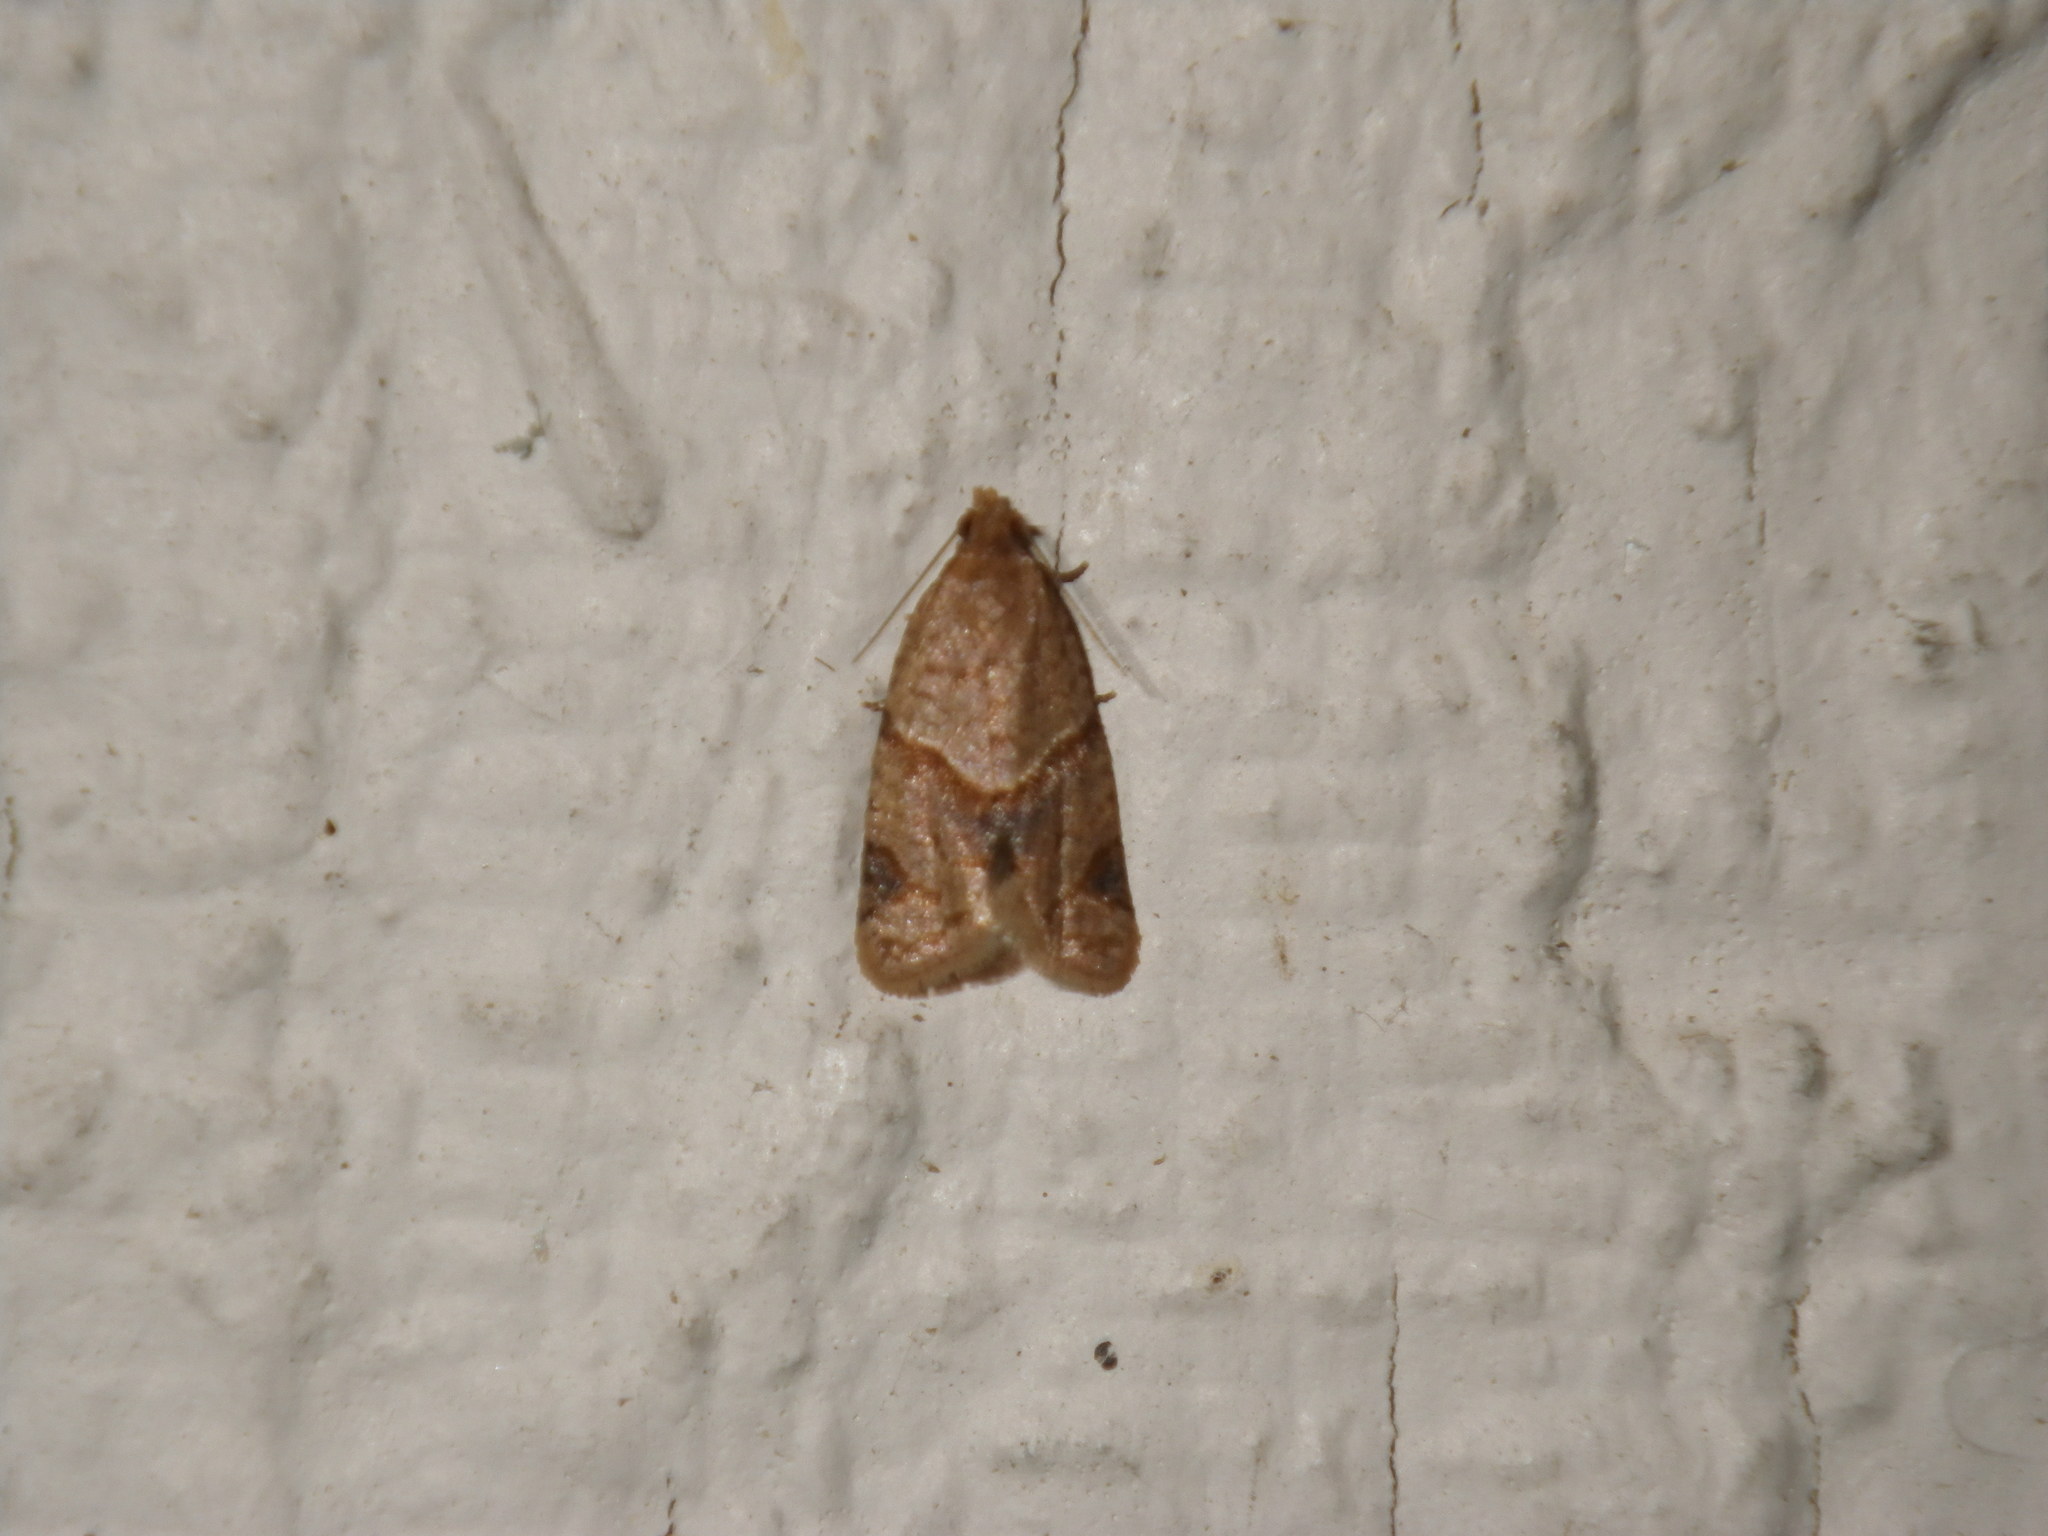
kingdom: Animalia
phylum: Arthropoda
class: Insecta
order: Lepidoptera
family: Tortricidae
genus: Clepsis
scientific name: Clepsis peritana
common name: Garden tortrix
